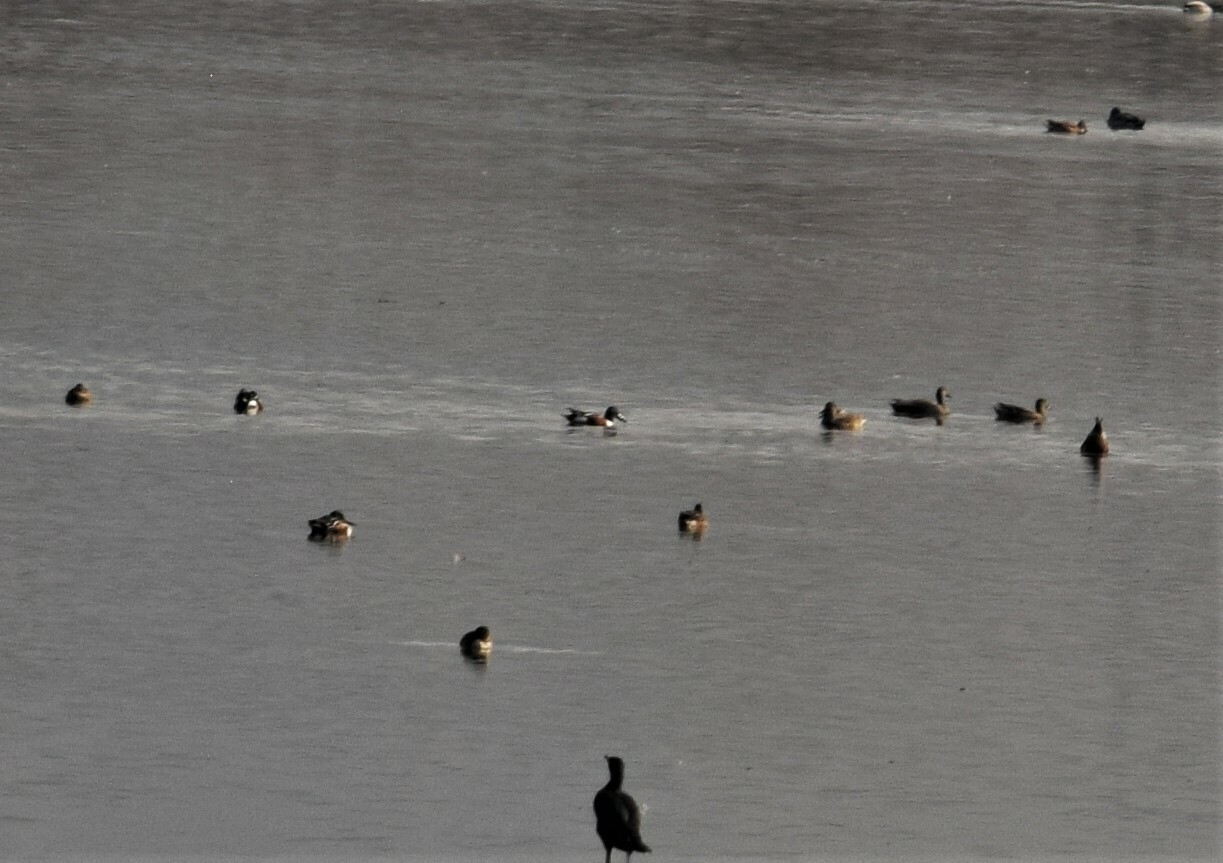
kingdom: Animalia
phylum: Chordata
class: Aves
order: Anseriformes
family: Anatidae
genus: Spatula
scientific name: Spatula clypeata
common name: Northern shoveler
